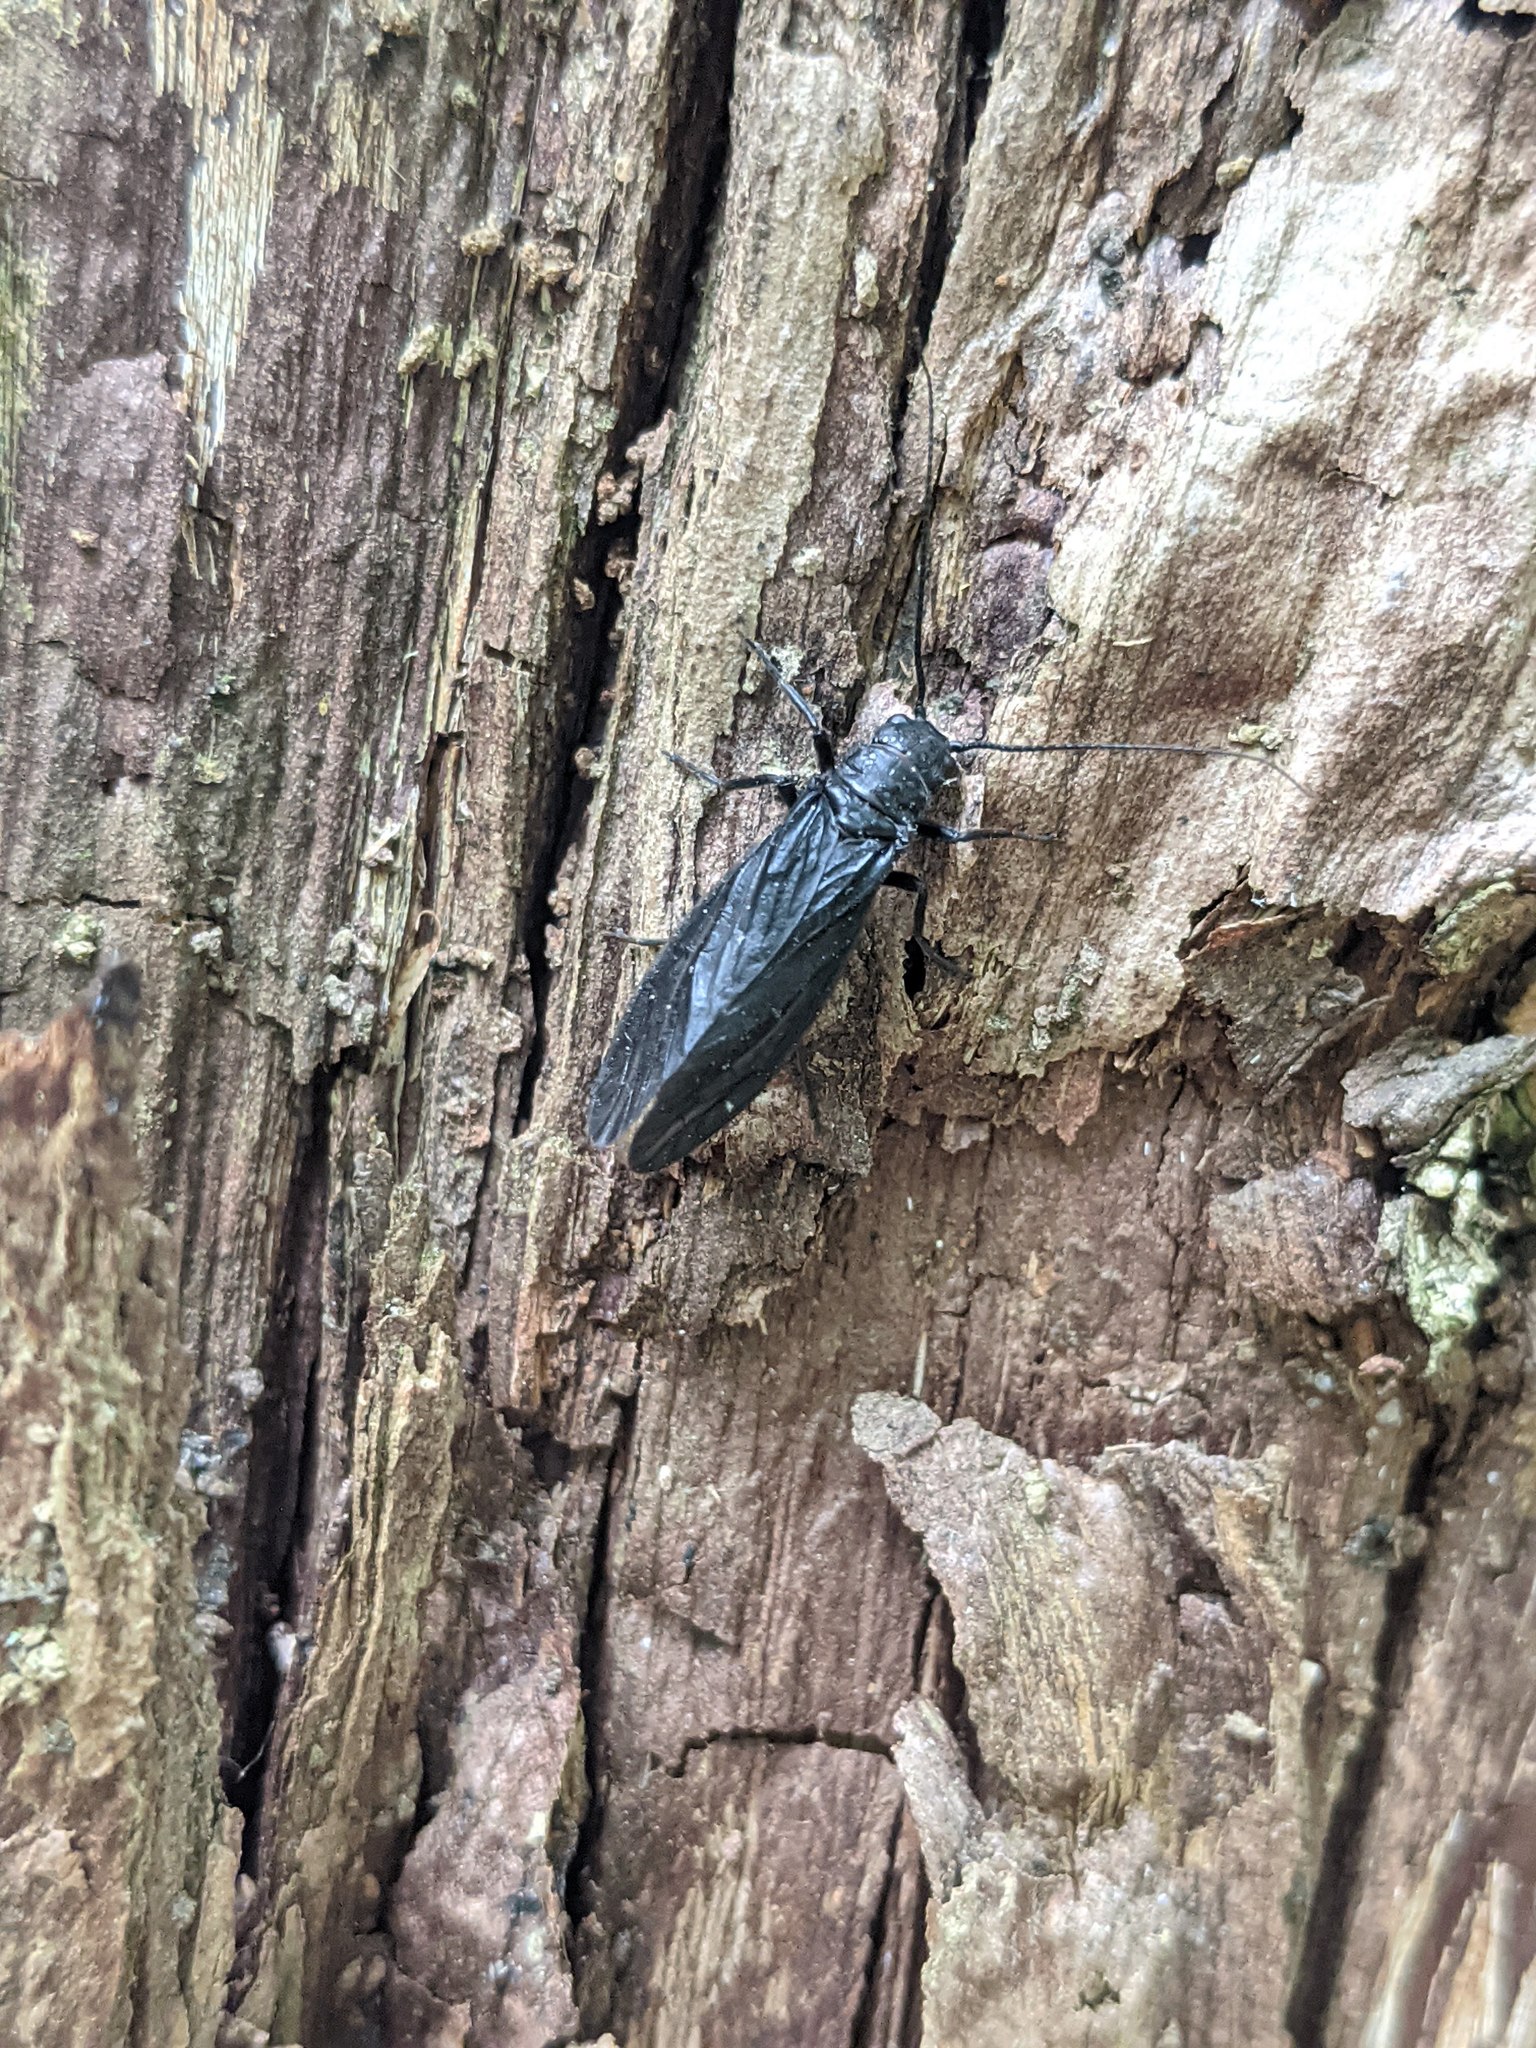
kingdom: Animalia
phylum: Arthropoda
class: Insecta
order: Megaloptera
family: Sialidae
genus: Sialis
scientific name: Sialis
